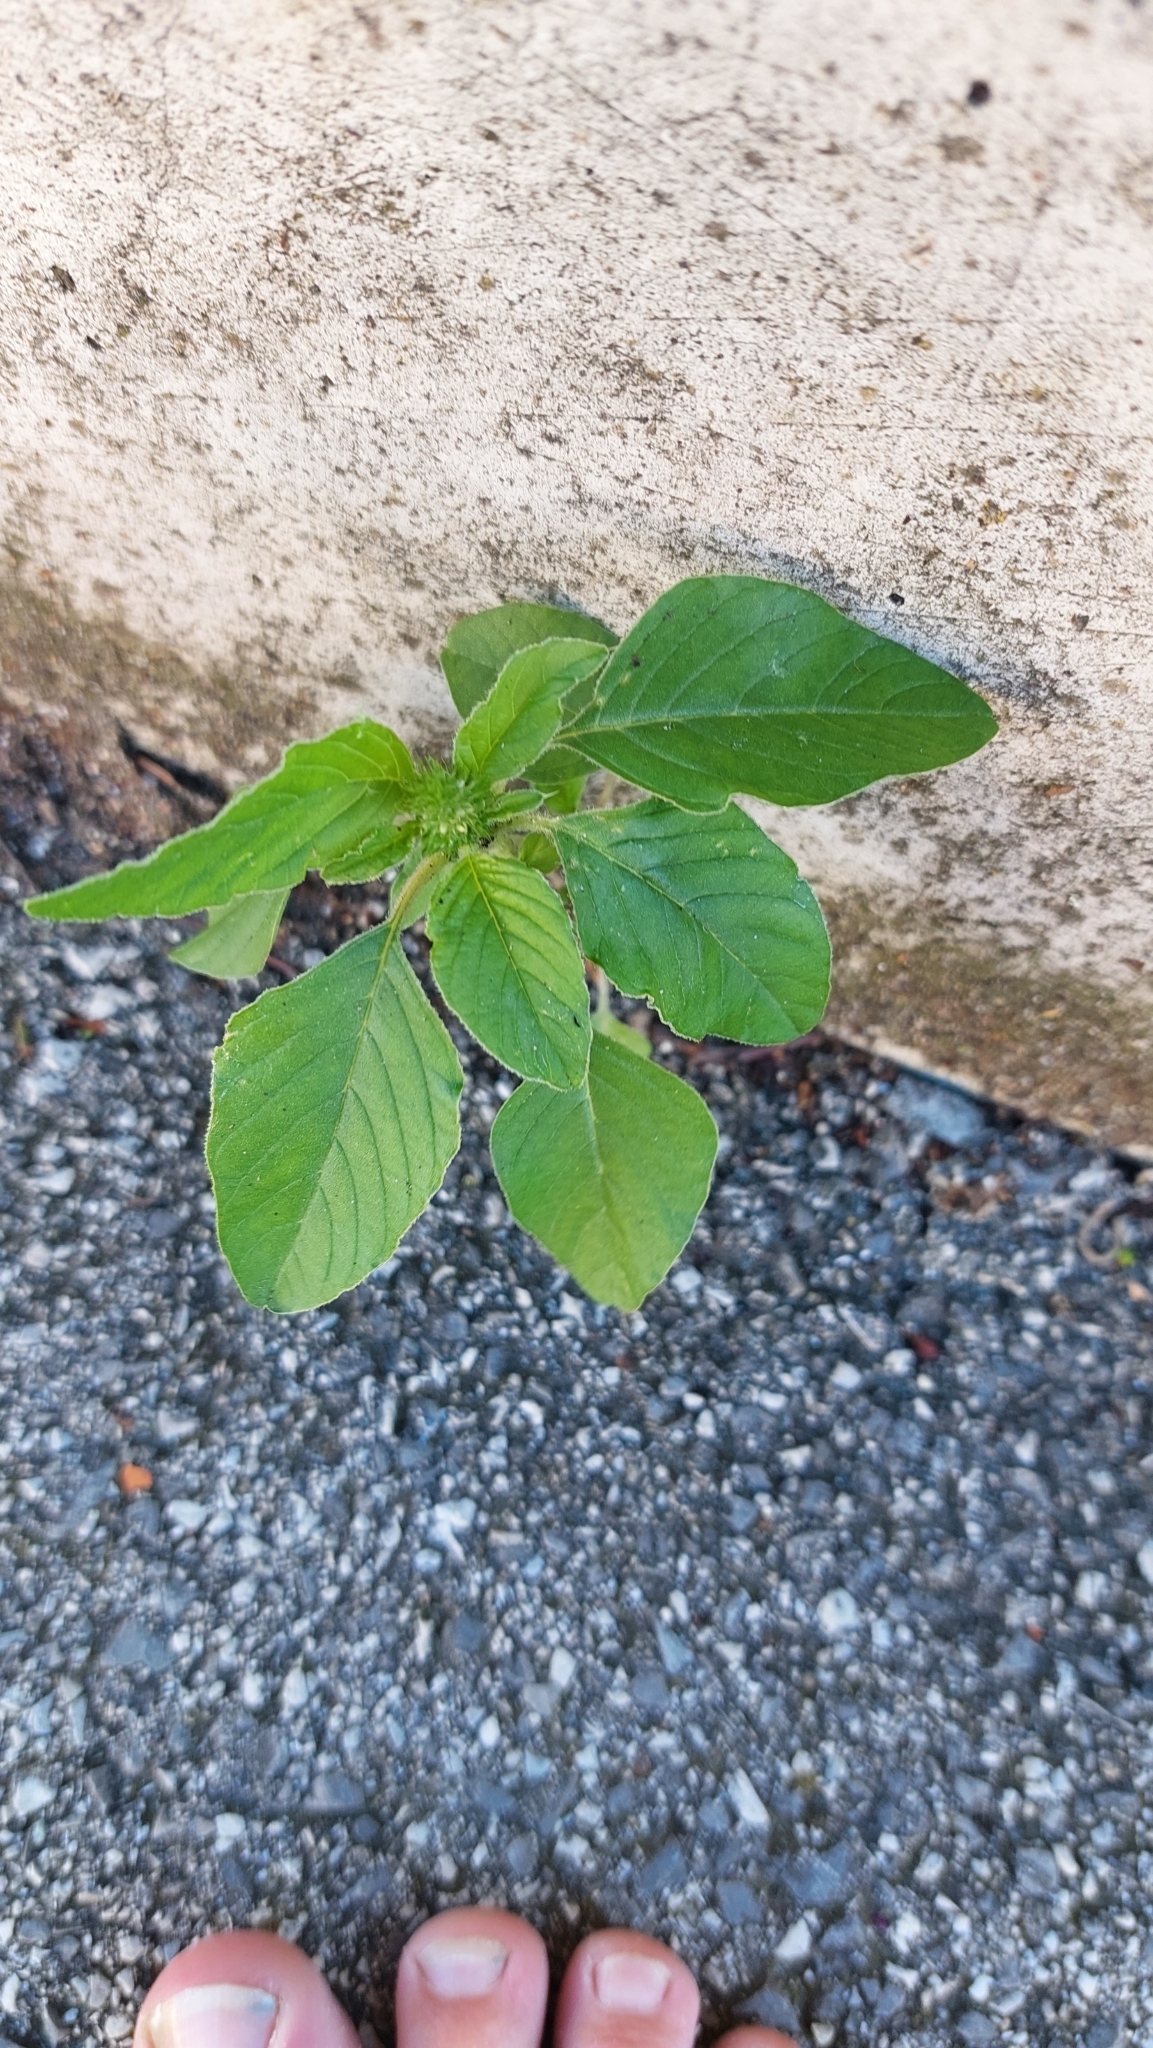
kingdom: Plantae
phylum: Tracheophyta
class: Magnoliopsida
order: Caryophyllales
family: Amaranthaceae
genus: Amaranthus
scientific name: Amaranthus retroflexus
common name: Redroot amaranth
